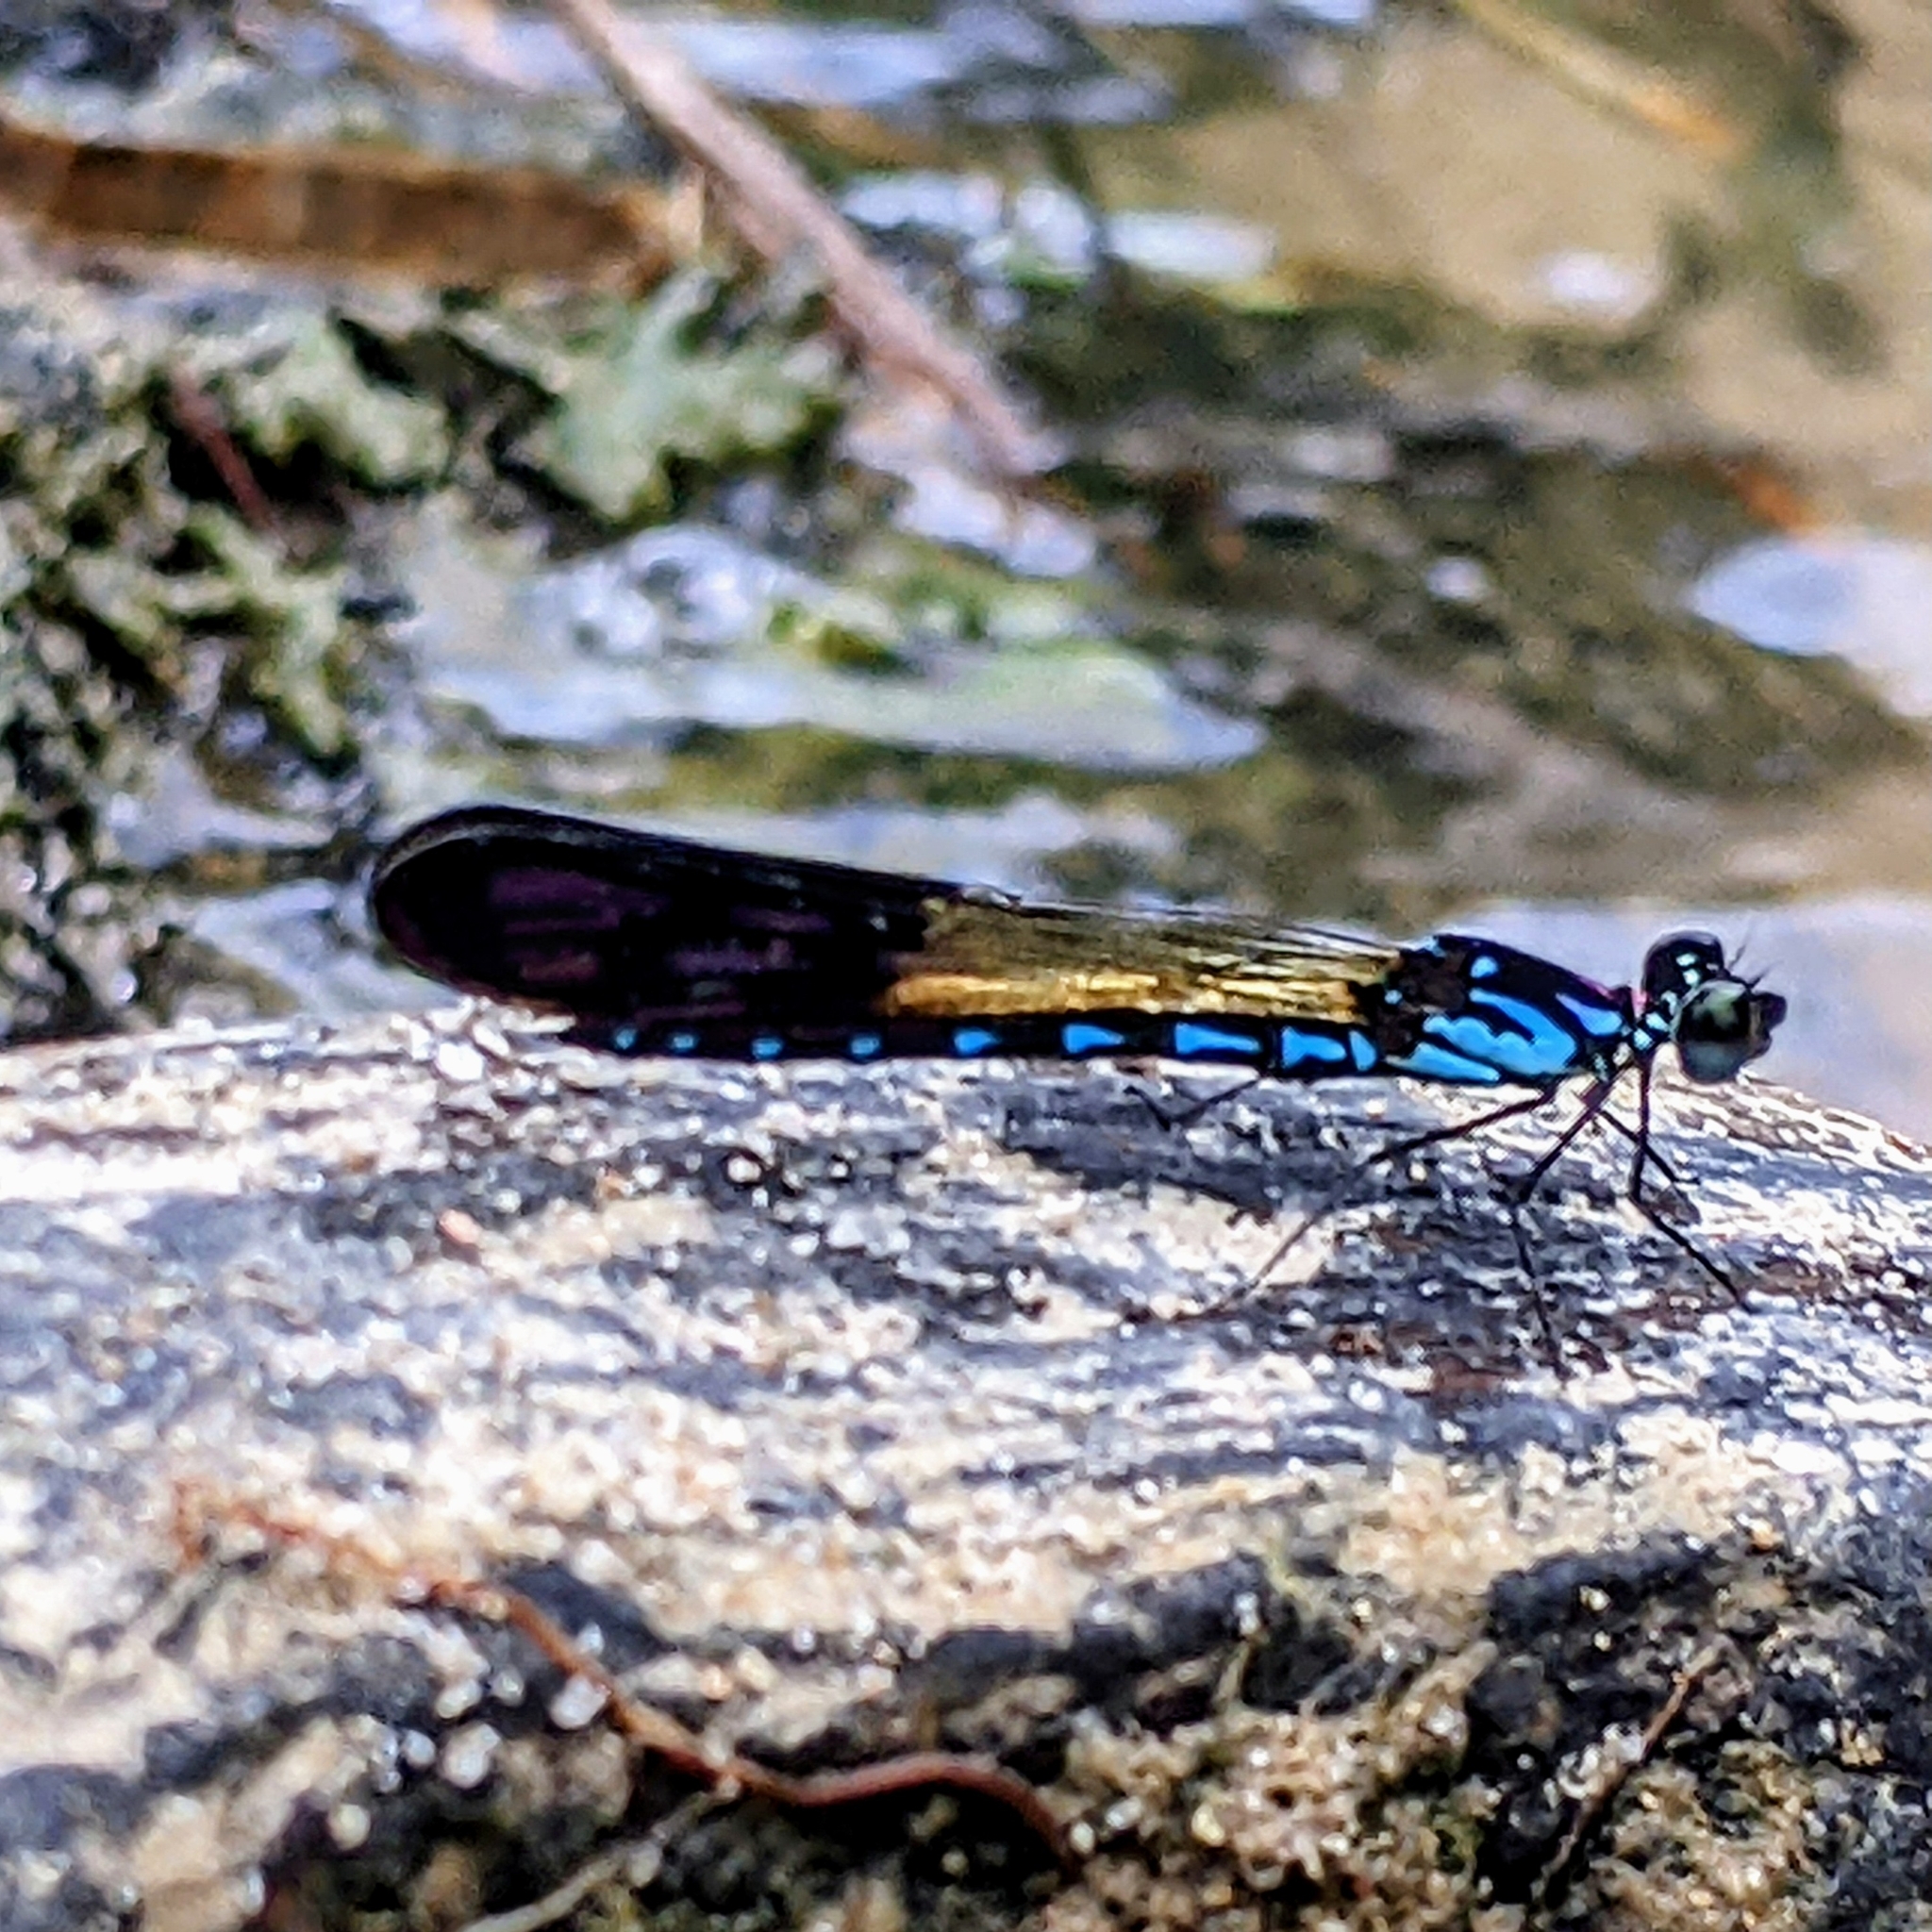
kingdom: Animalia
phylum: Arthropoda
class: Insecta
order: Odonata
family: Chlorocyphidae
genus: Heliocypha
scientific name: Heliocypha perforata
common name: Common blue jewel
